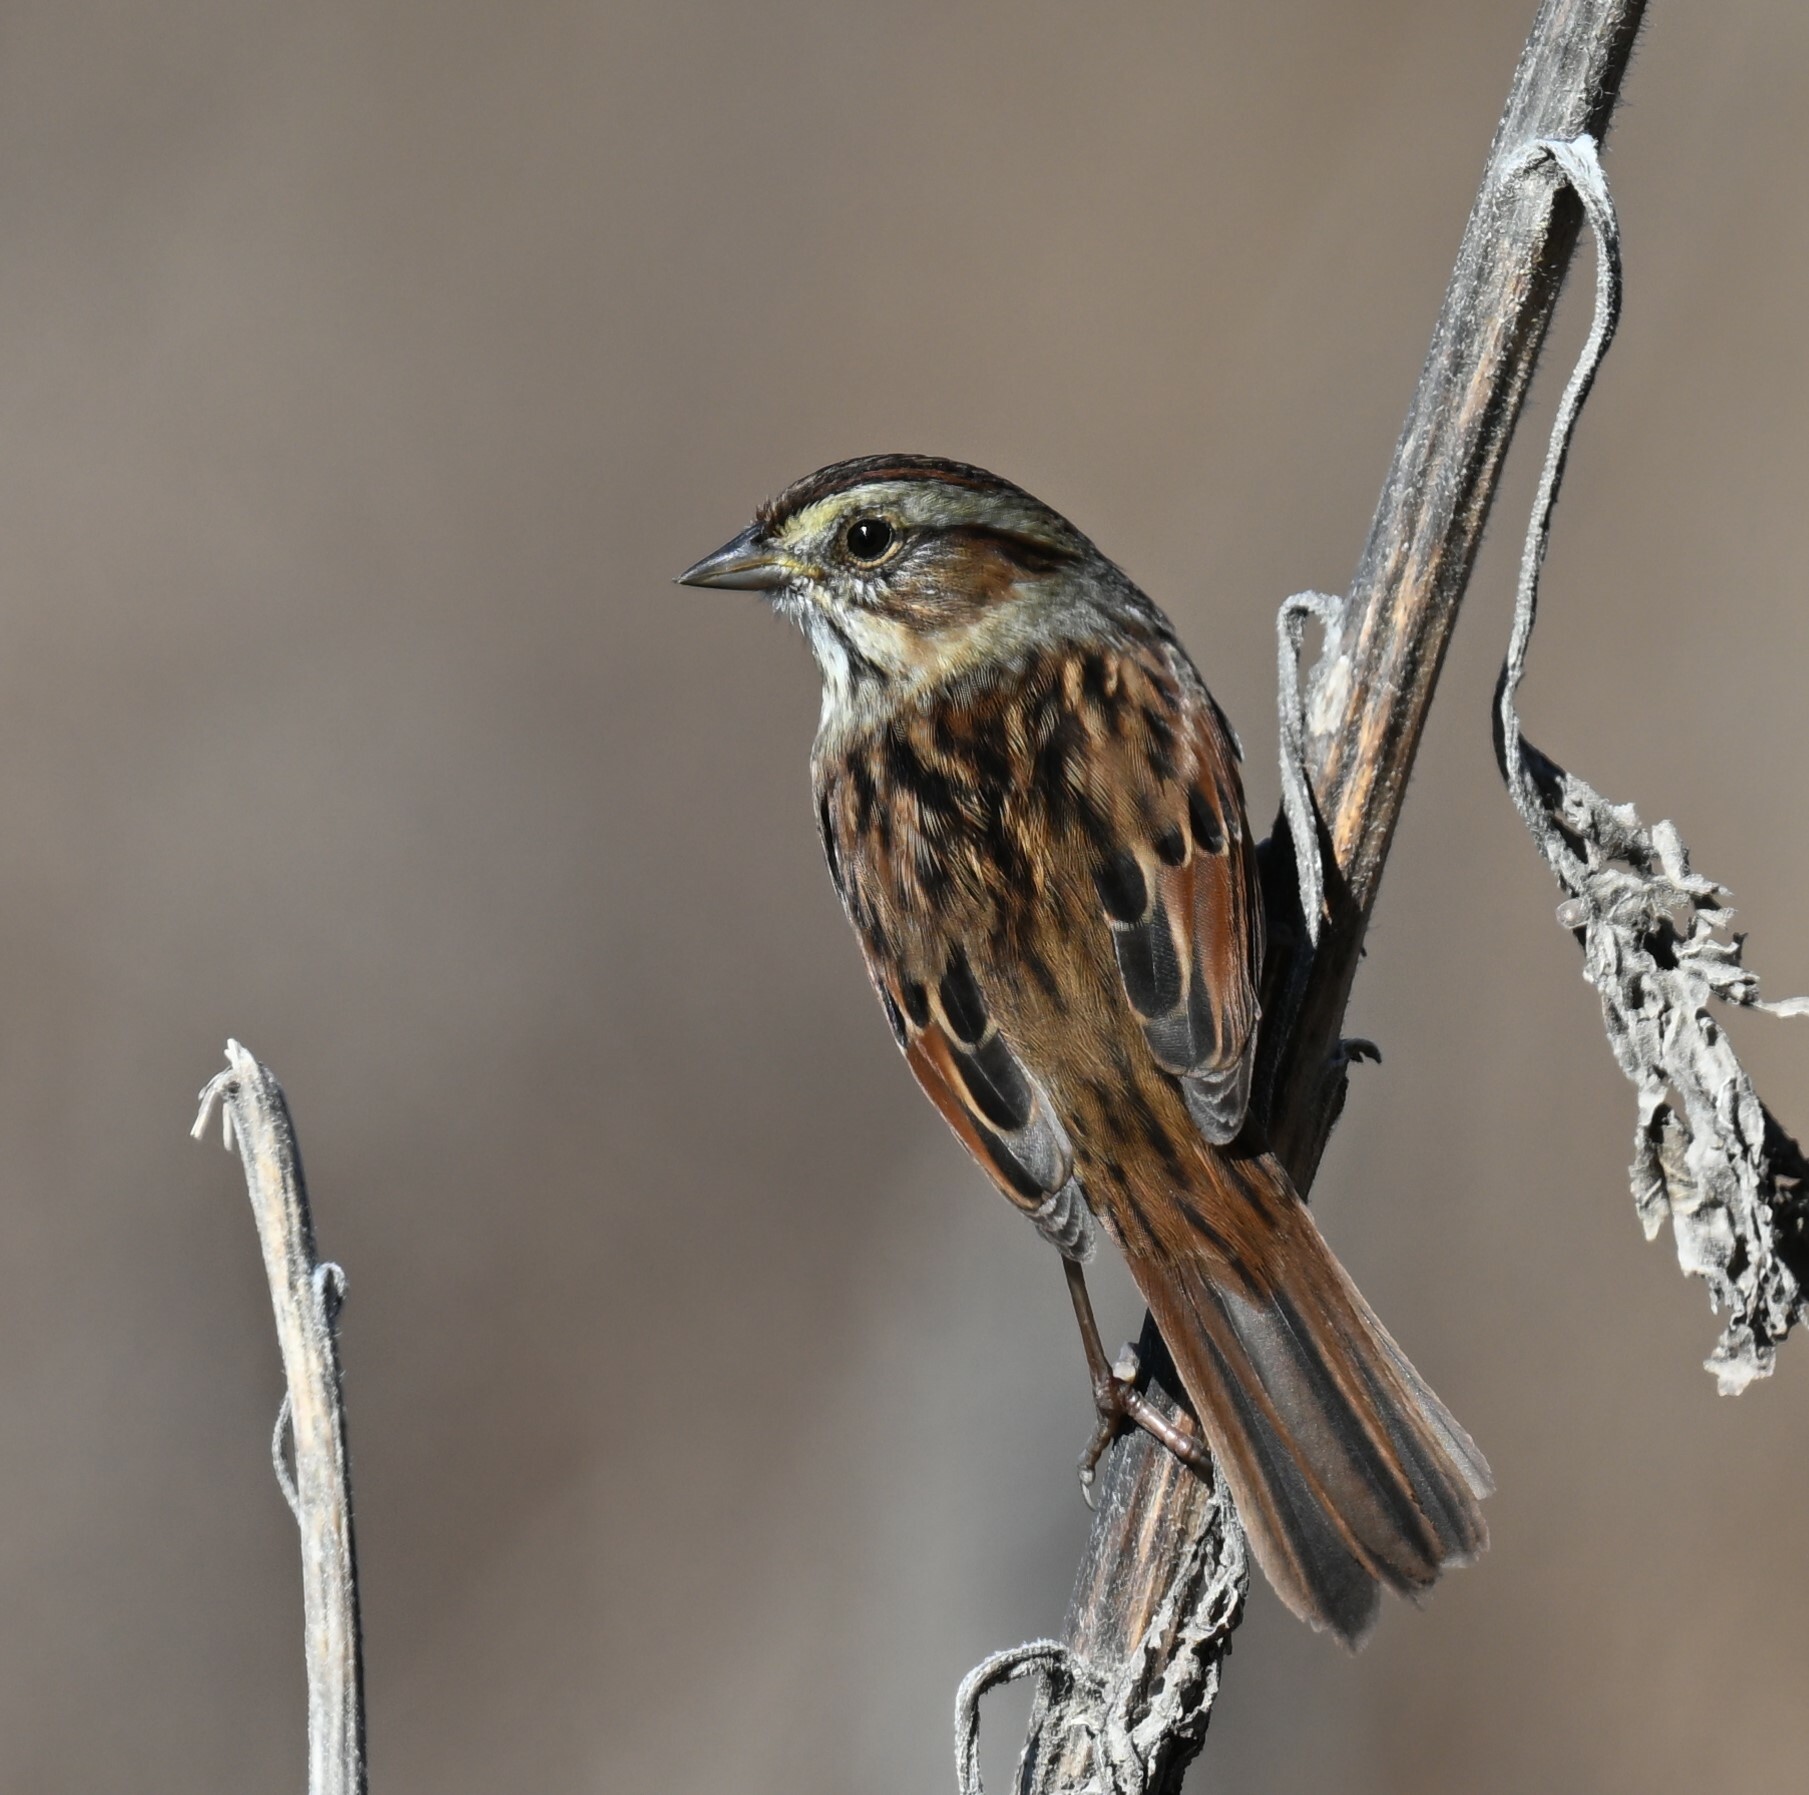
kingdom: Animalia
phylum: Chordata
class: Aves
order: Passeriformes
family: Passerellidae
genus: Melospiza
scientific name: Melospiza georgiana
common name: Swamp sparrow
